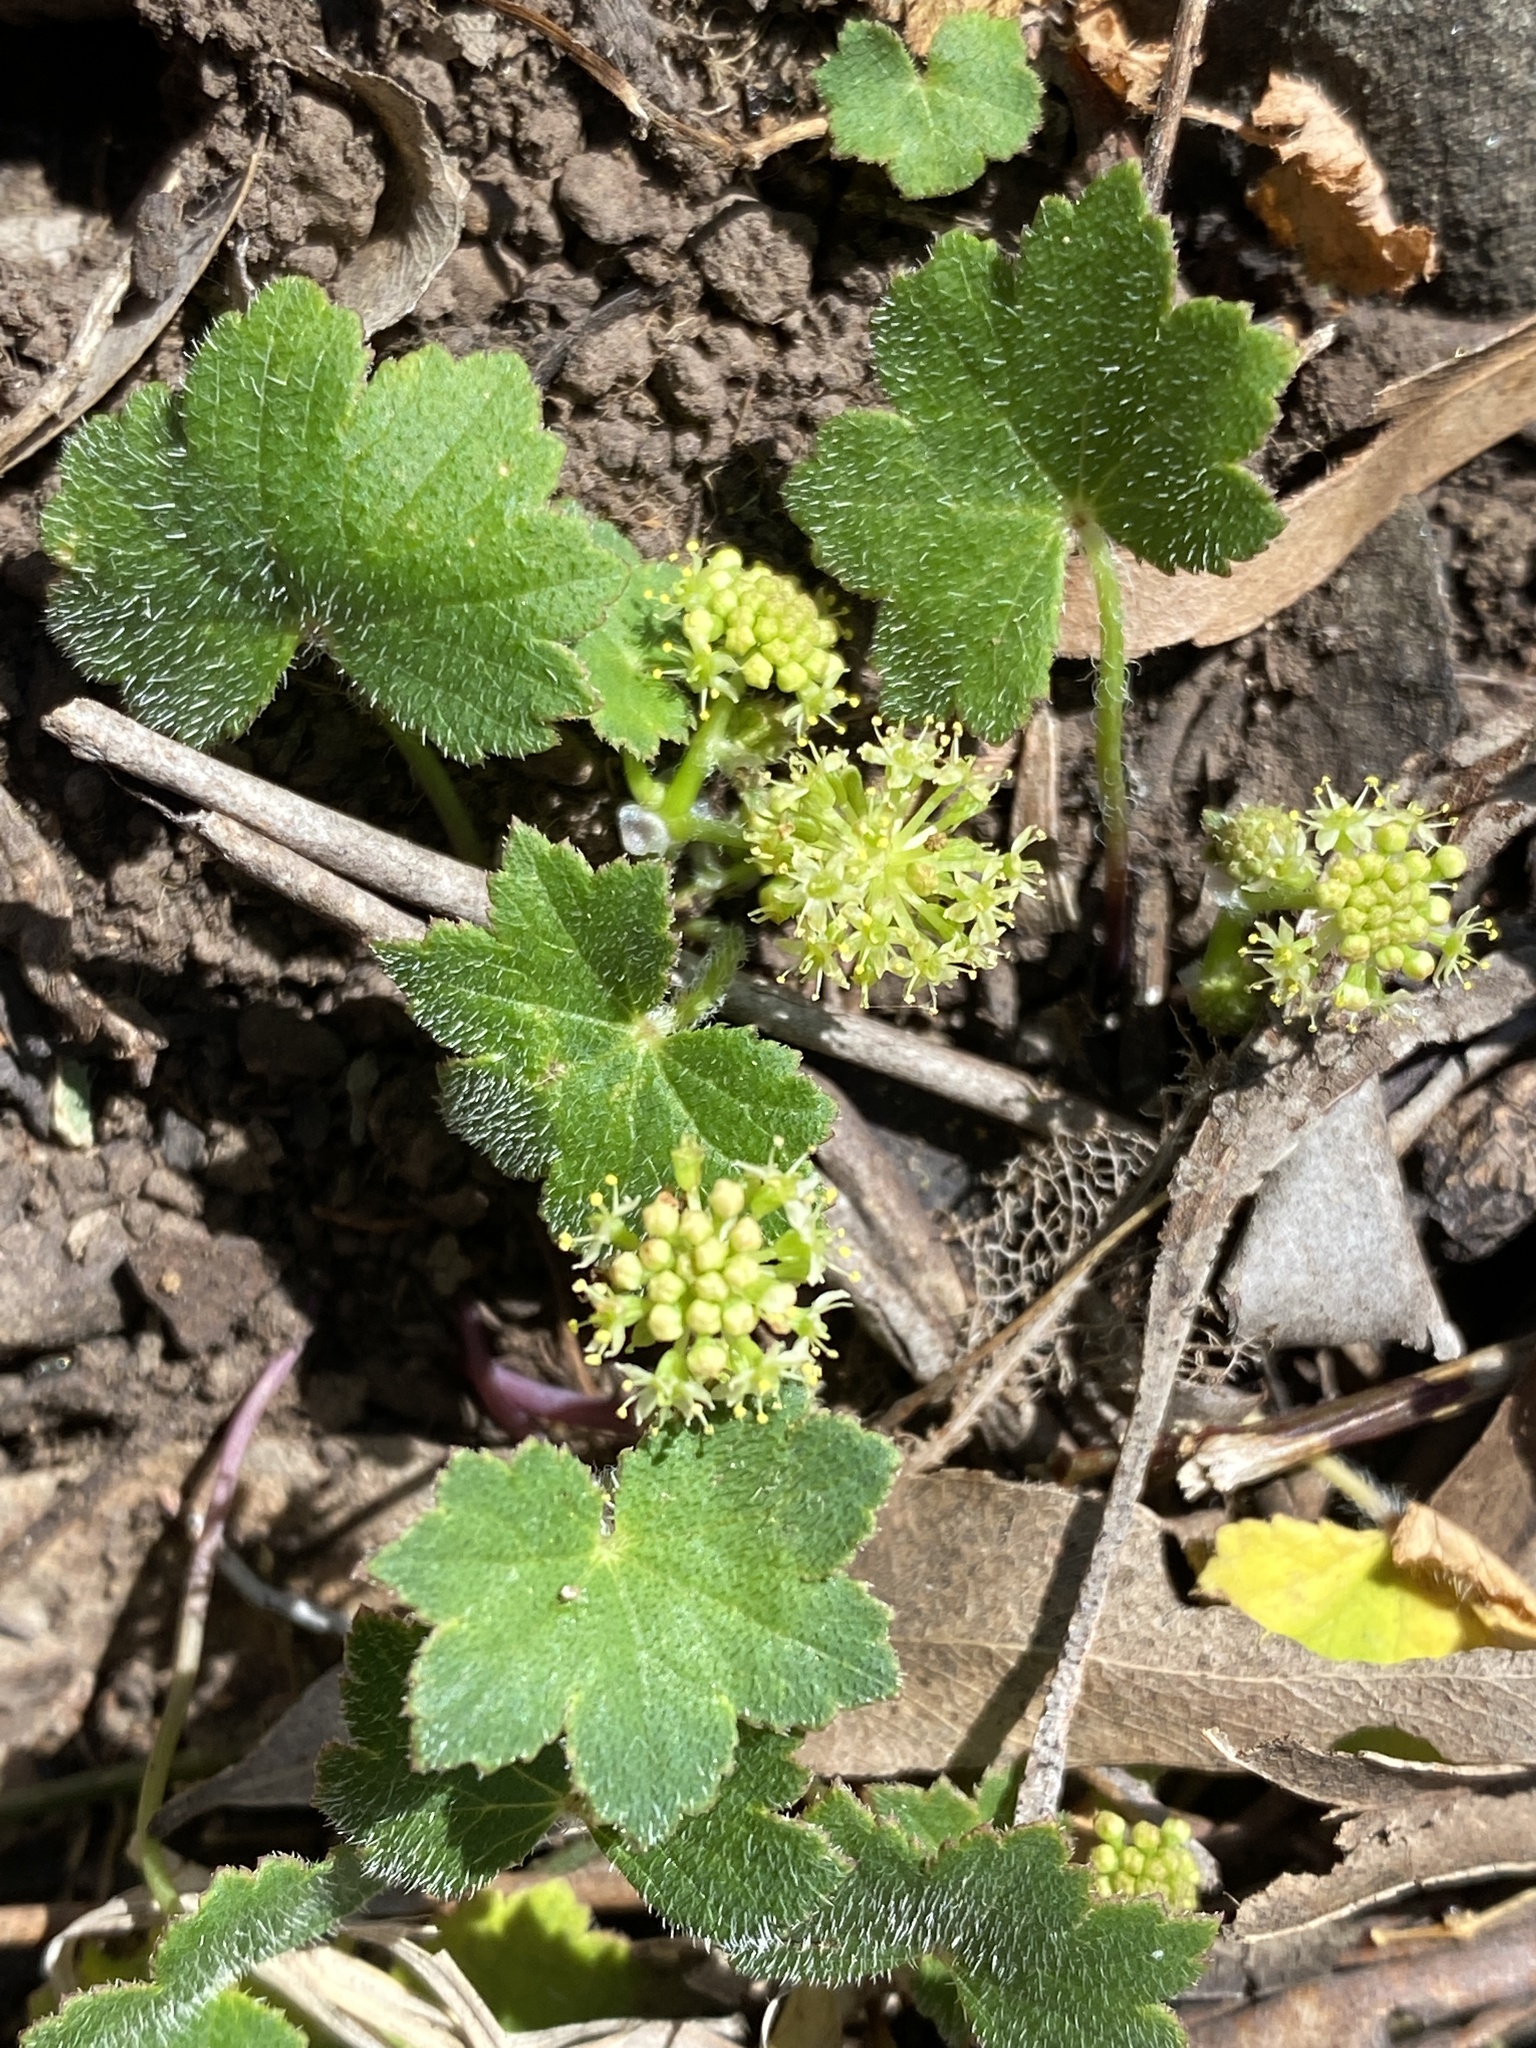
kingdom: Plantae
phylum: Tracheophyta
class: Magnoliopsida
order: Apiales
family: Araliaceae
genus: Hydrocotyle
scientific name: Hydrocotyle laxiflora
